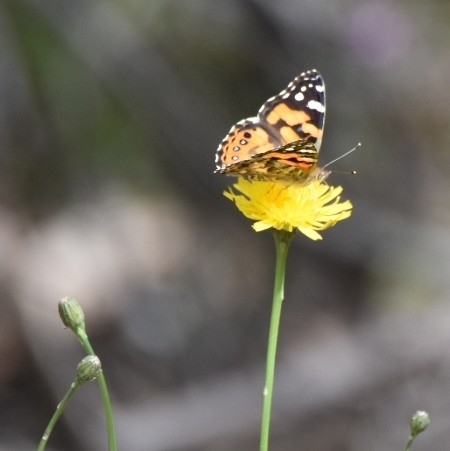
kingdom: Animalia
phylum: Arthropoda
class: Insecta
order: Lepidoptera
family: Nymphalidae
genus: Vanessa
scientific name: Vanessa kershawi
